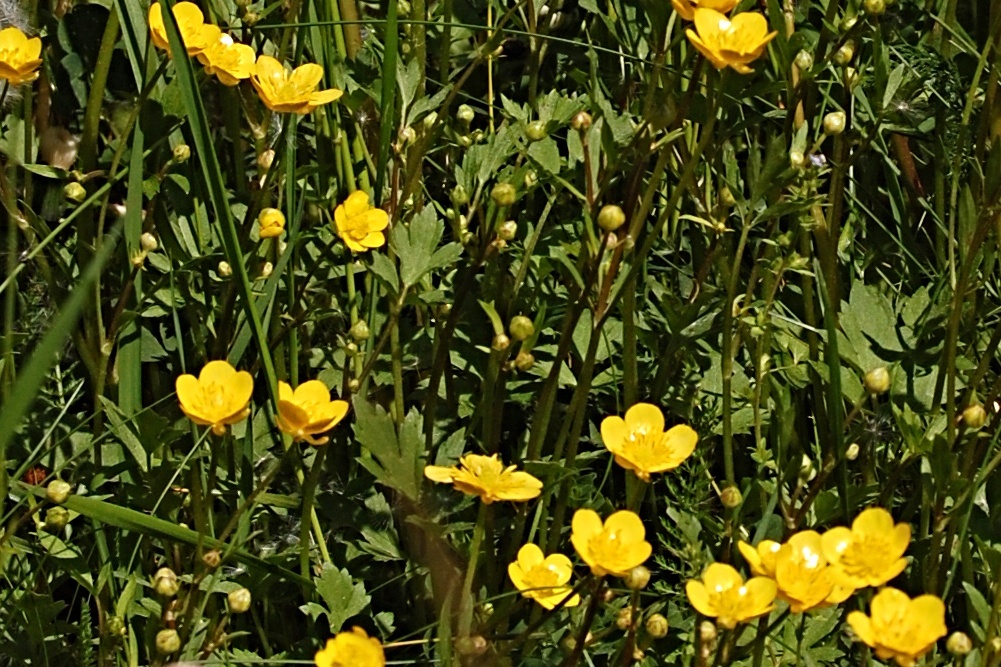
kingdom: Plantae
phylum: Tracheophyta
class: Magnoliopsida
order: Ranunculales
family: Ranunculaceae
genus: Ranunculus
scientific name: Ranunculus repens
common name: Creeping buttercup
